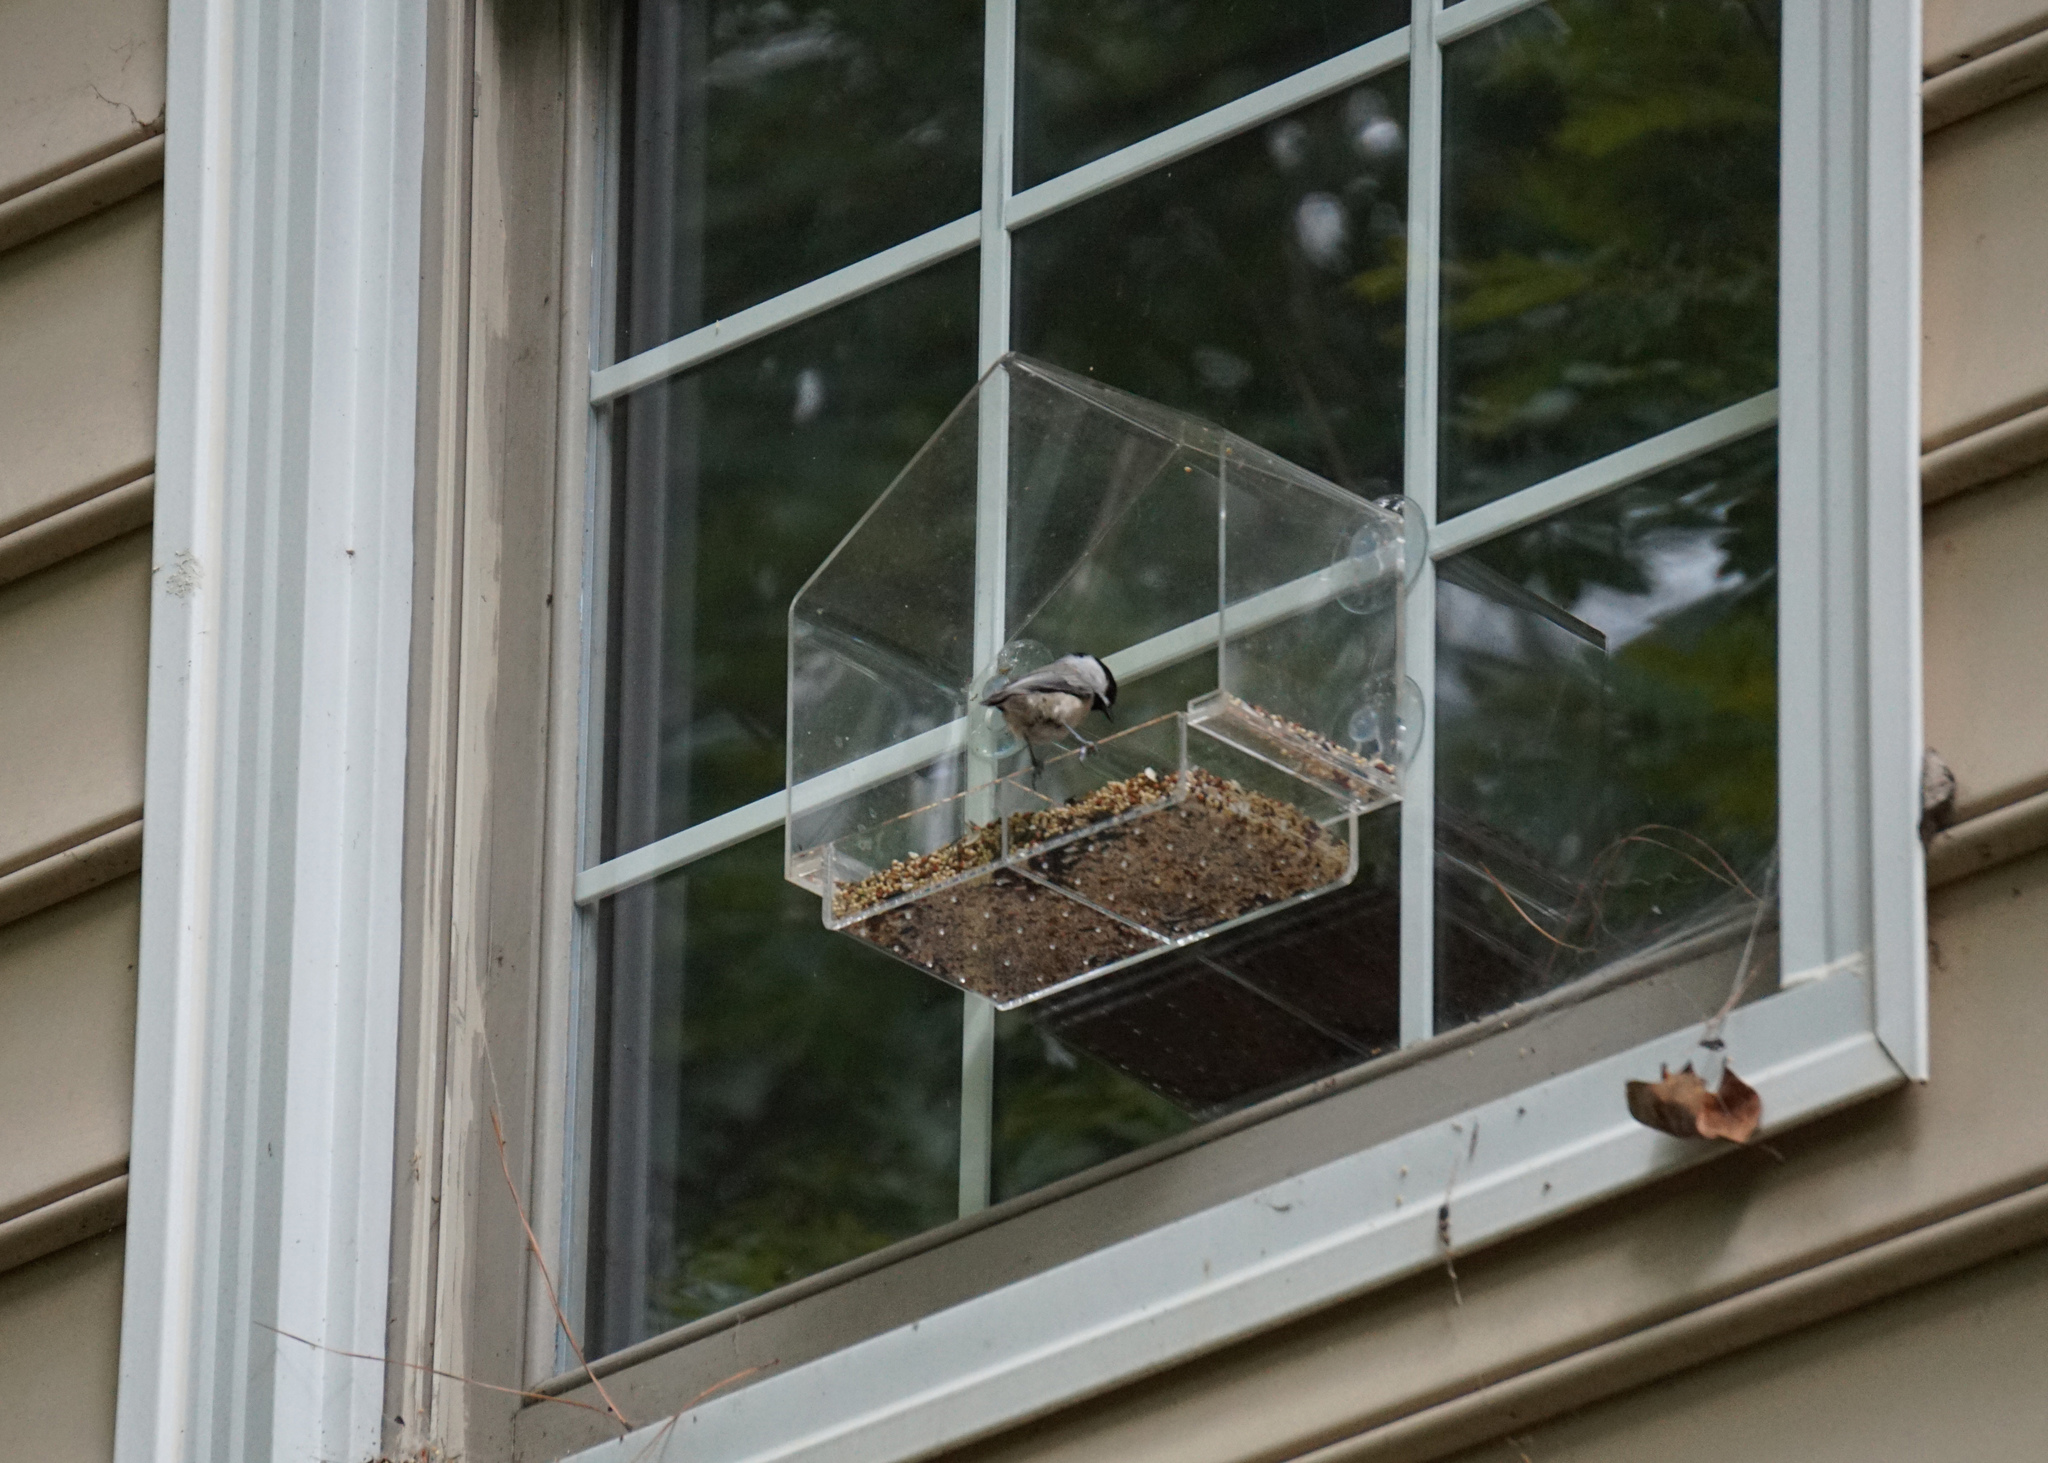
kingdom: Animalia
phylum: Chordata
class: Aves
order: Passeriformes
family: Paridae
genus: Poecile
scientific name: Poecile carolinensis
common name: Carolina chickadee
